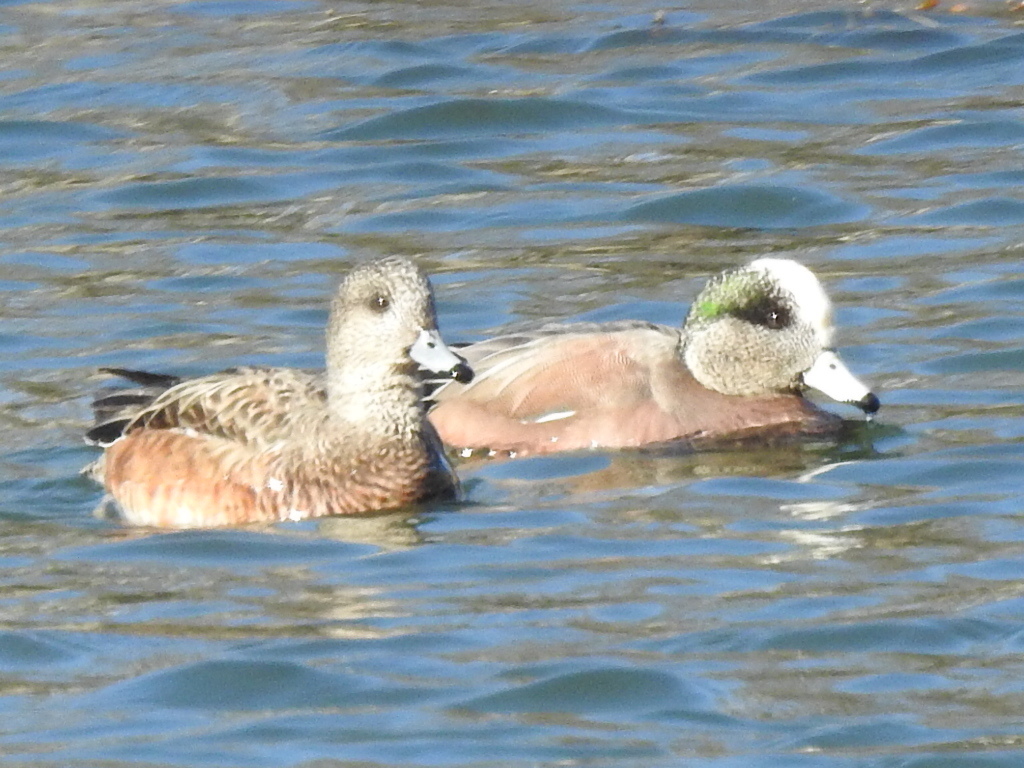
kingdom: Animalia
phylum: Chordata
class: Aves
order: Anseriformes
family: Anatidae
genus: Mareca
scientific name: Mareca americana
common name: American wigeon
